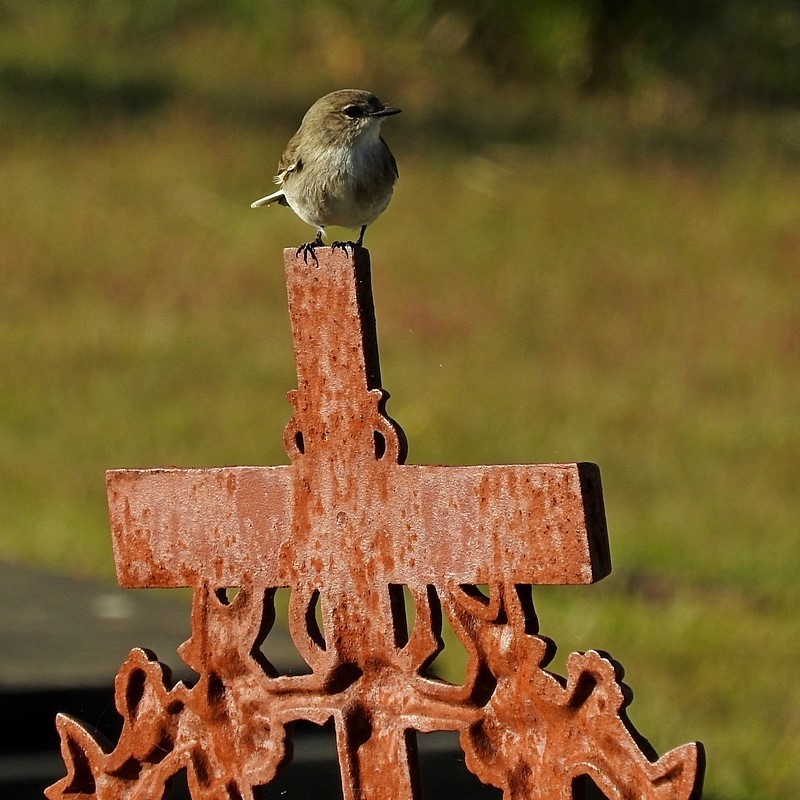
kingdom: Animalia
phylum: Chordata
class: Aves
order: Passeriformes
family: Petroicidae
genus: Microeca
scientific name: Microeca fascinans
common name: Jacky winter
